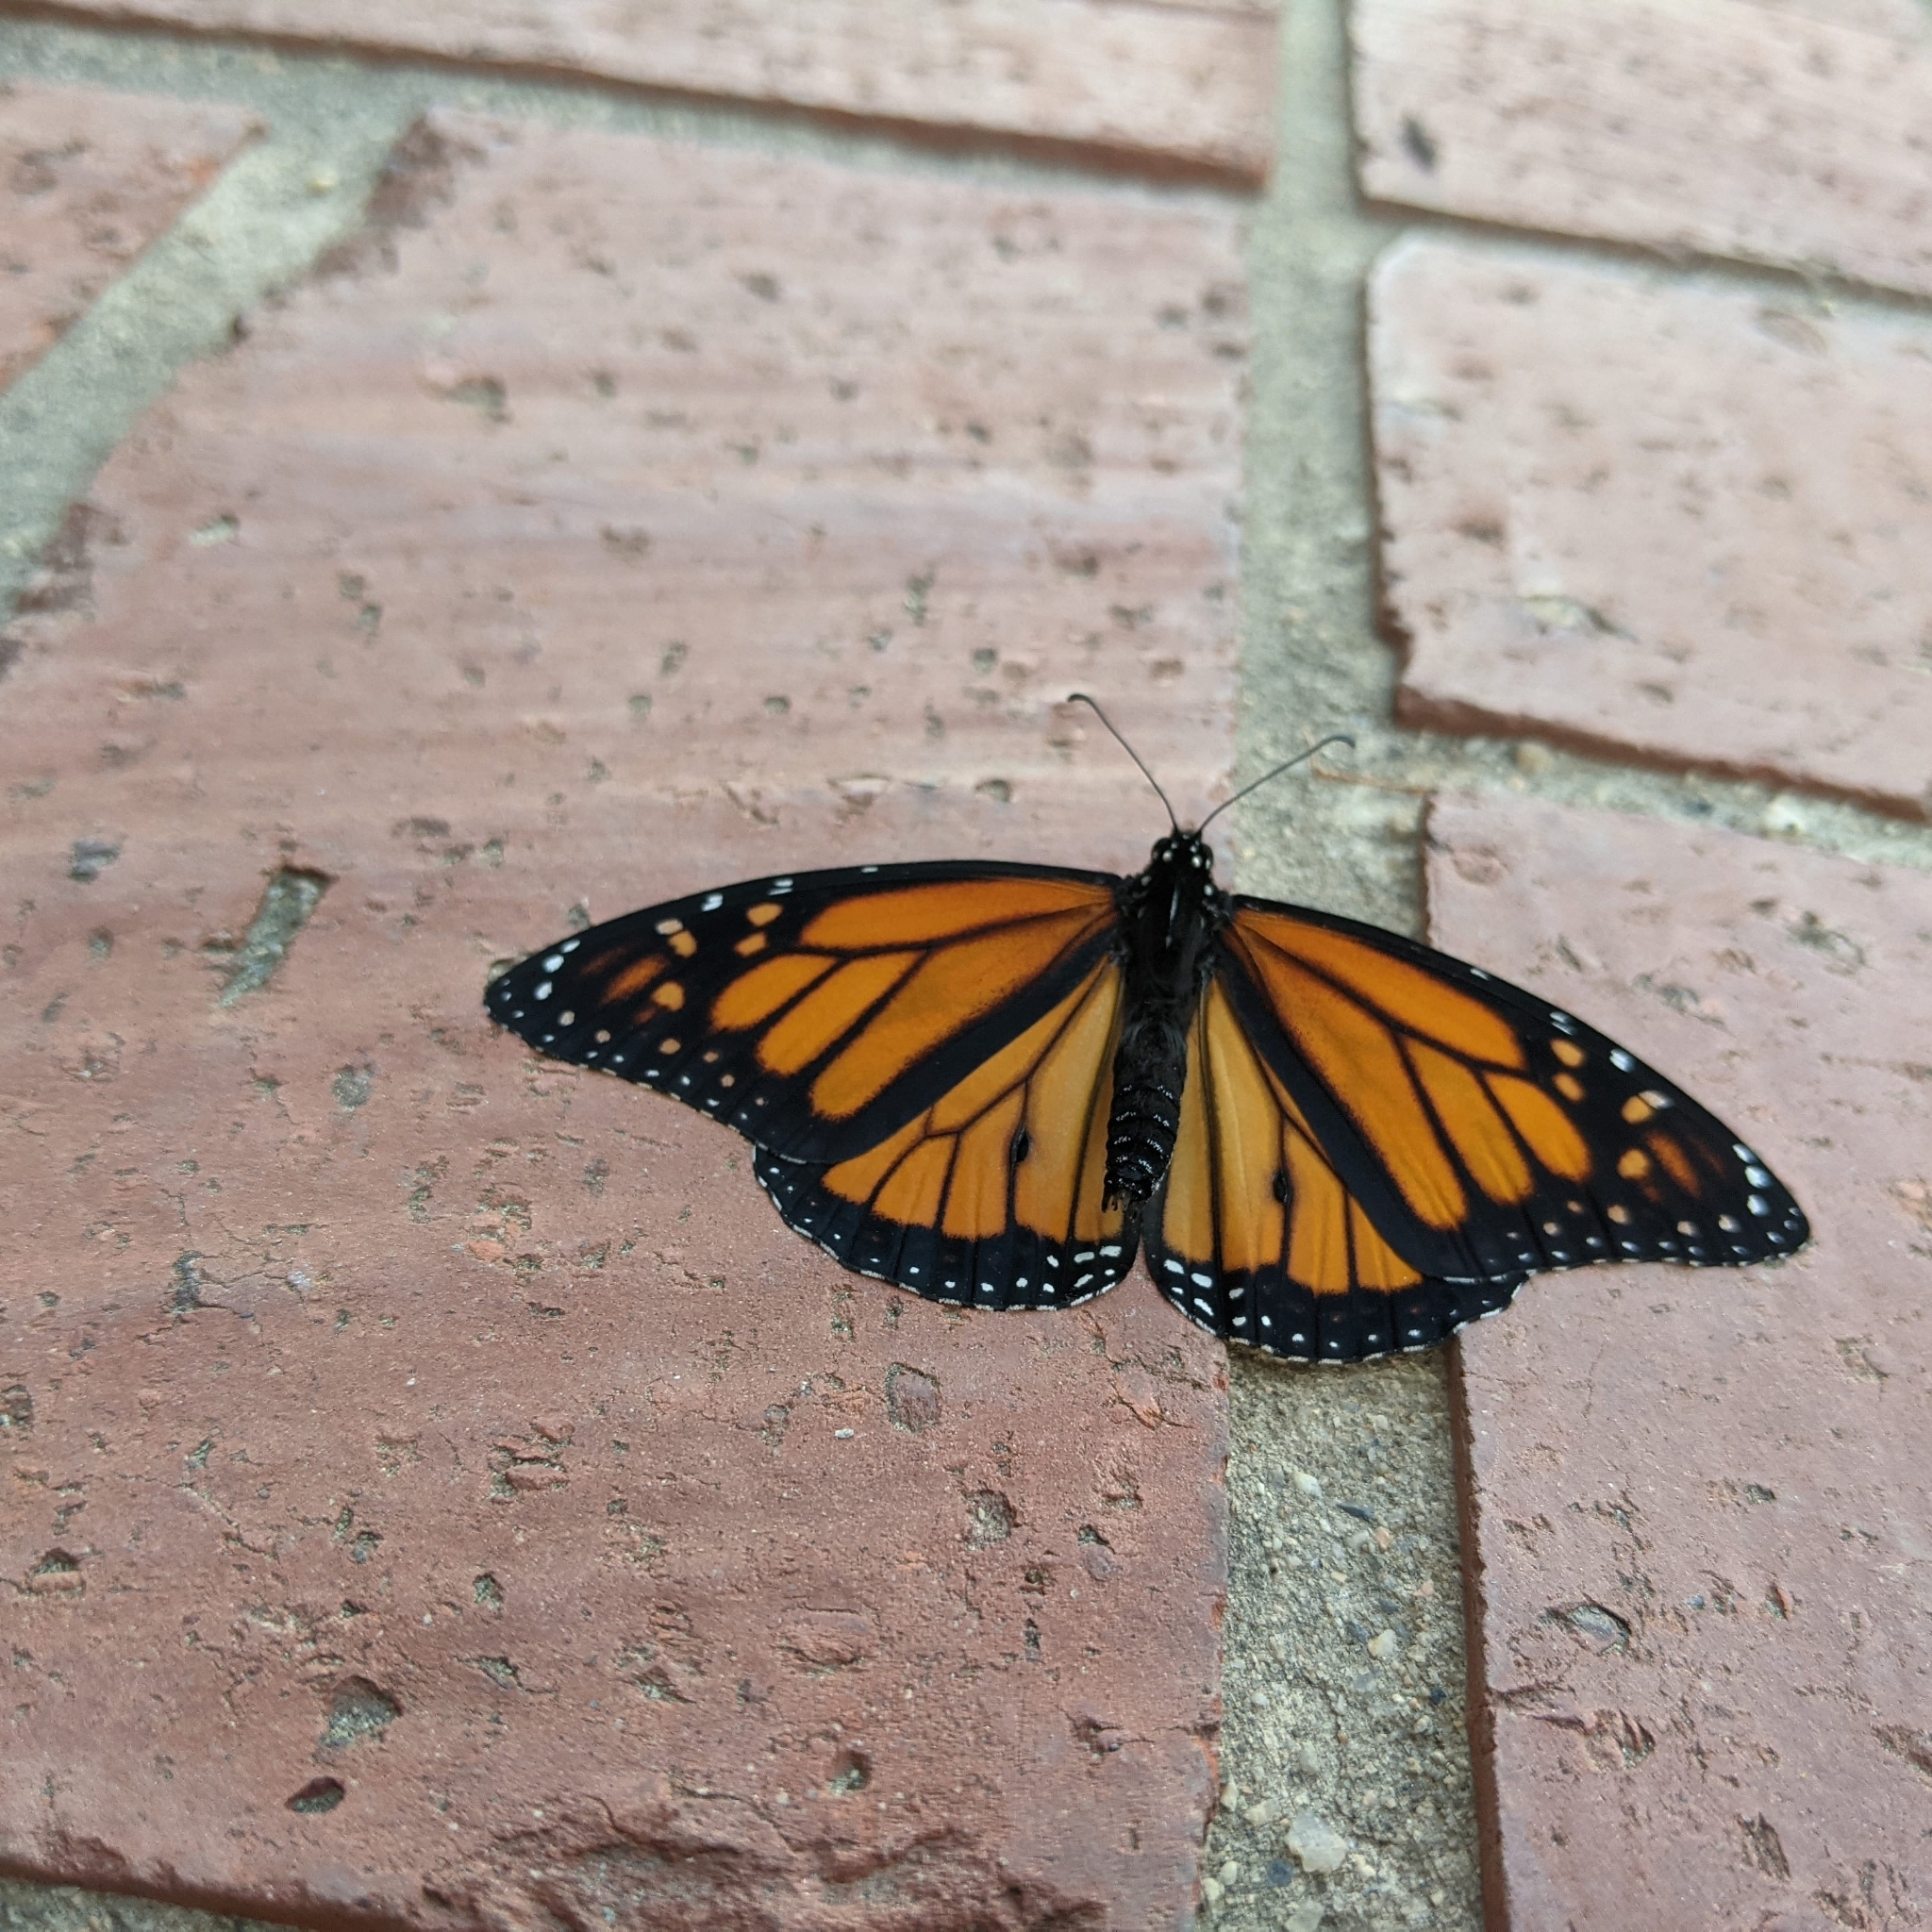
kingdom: Animalia
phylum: Arthropoda
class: Insecta
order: Lepidoptera
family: Nymphalidae
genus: Danaus
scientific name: Danaus plexippus
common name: Monarch
